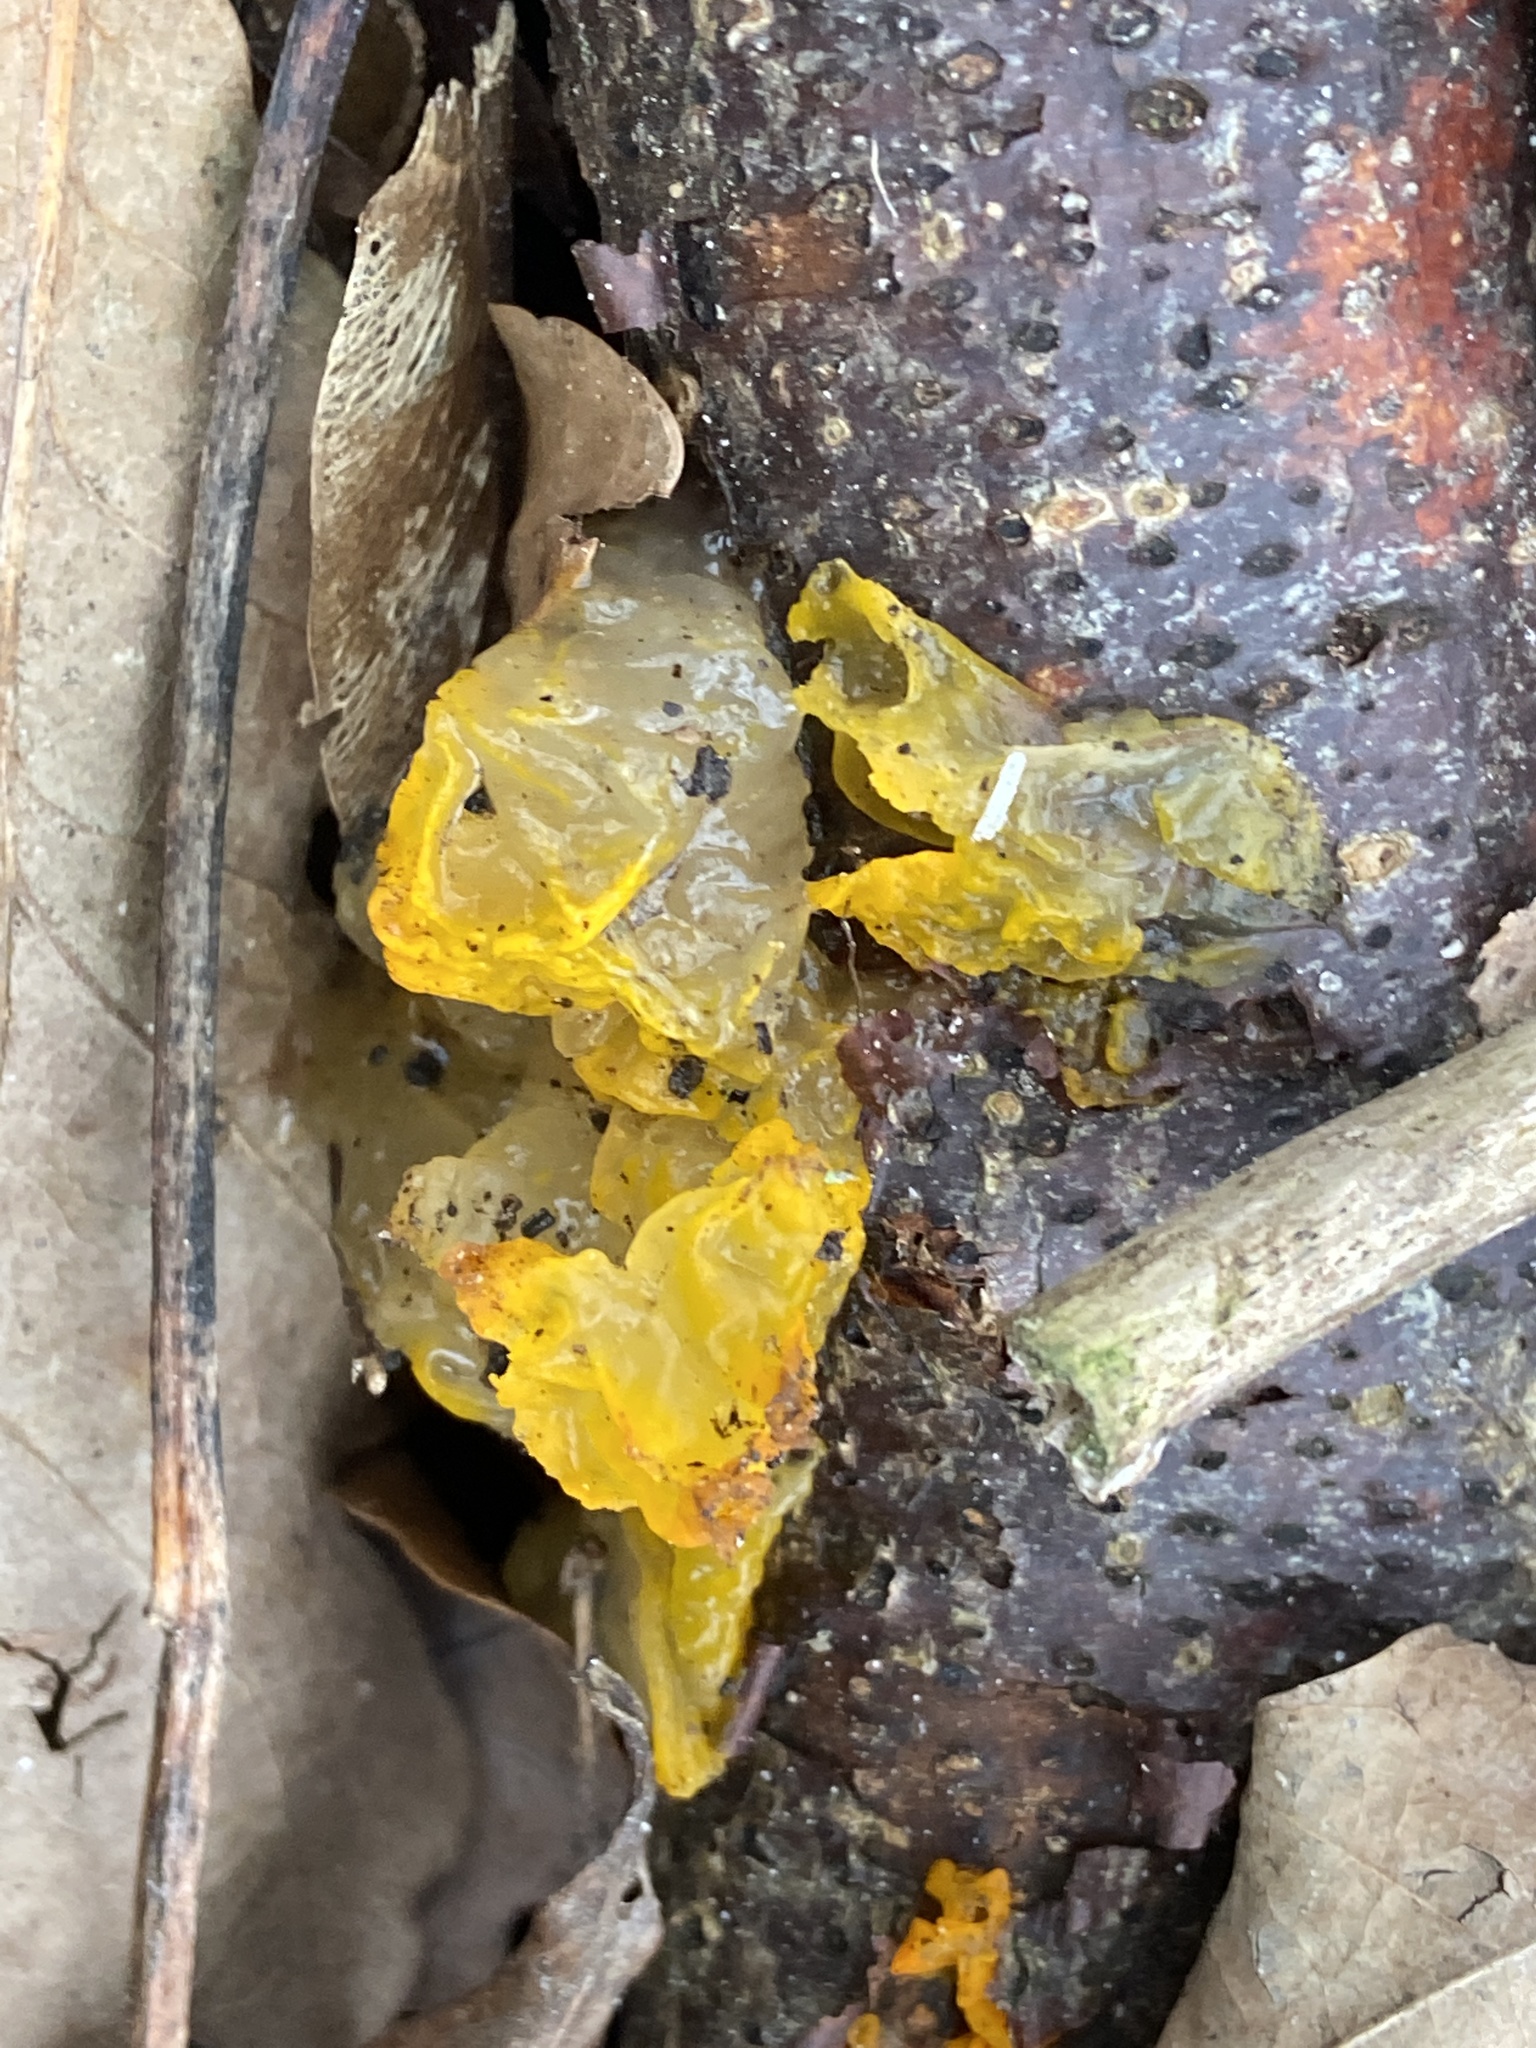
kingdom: Fungi
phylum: Basidiomycota
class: Tremellomycetes
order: Tremellales
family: Tremellaceae
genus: Tremella
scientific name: Tremella mesenterica
